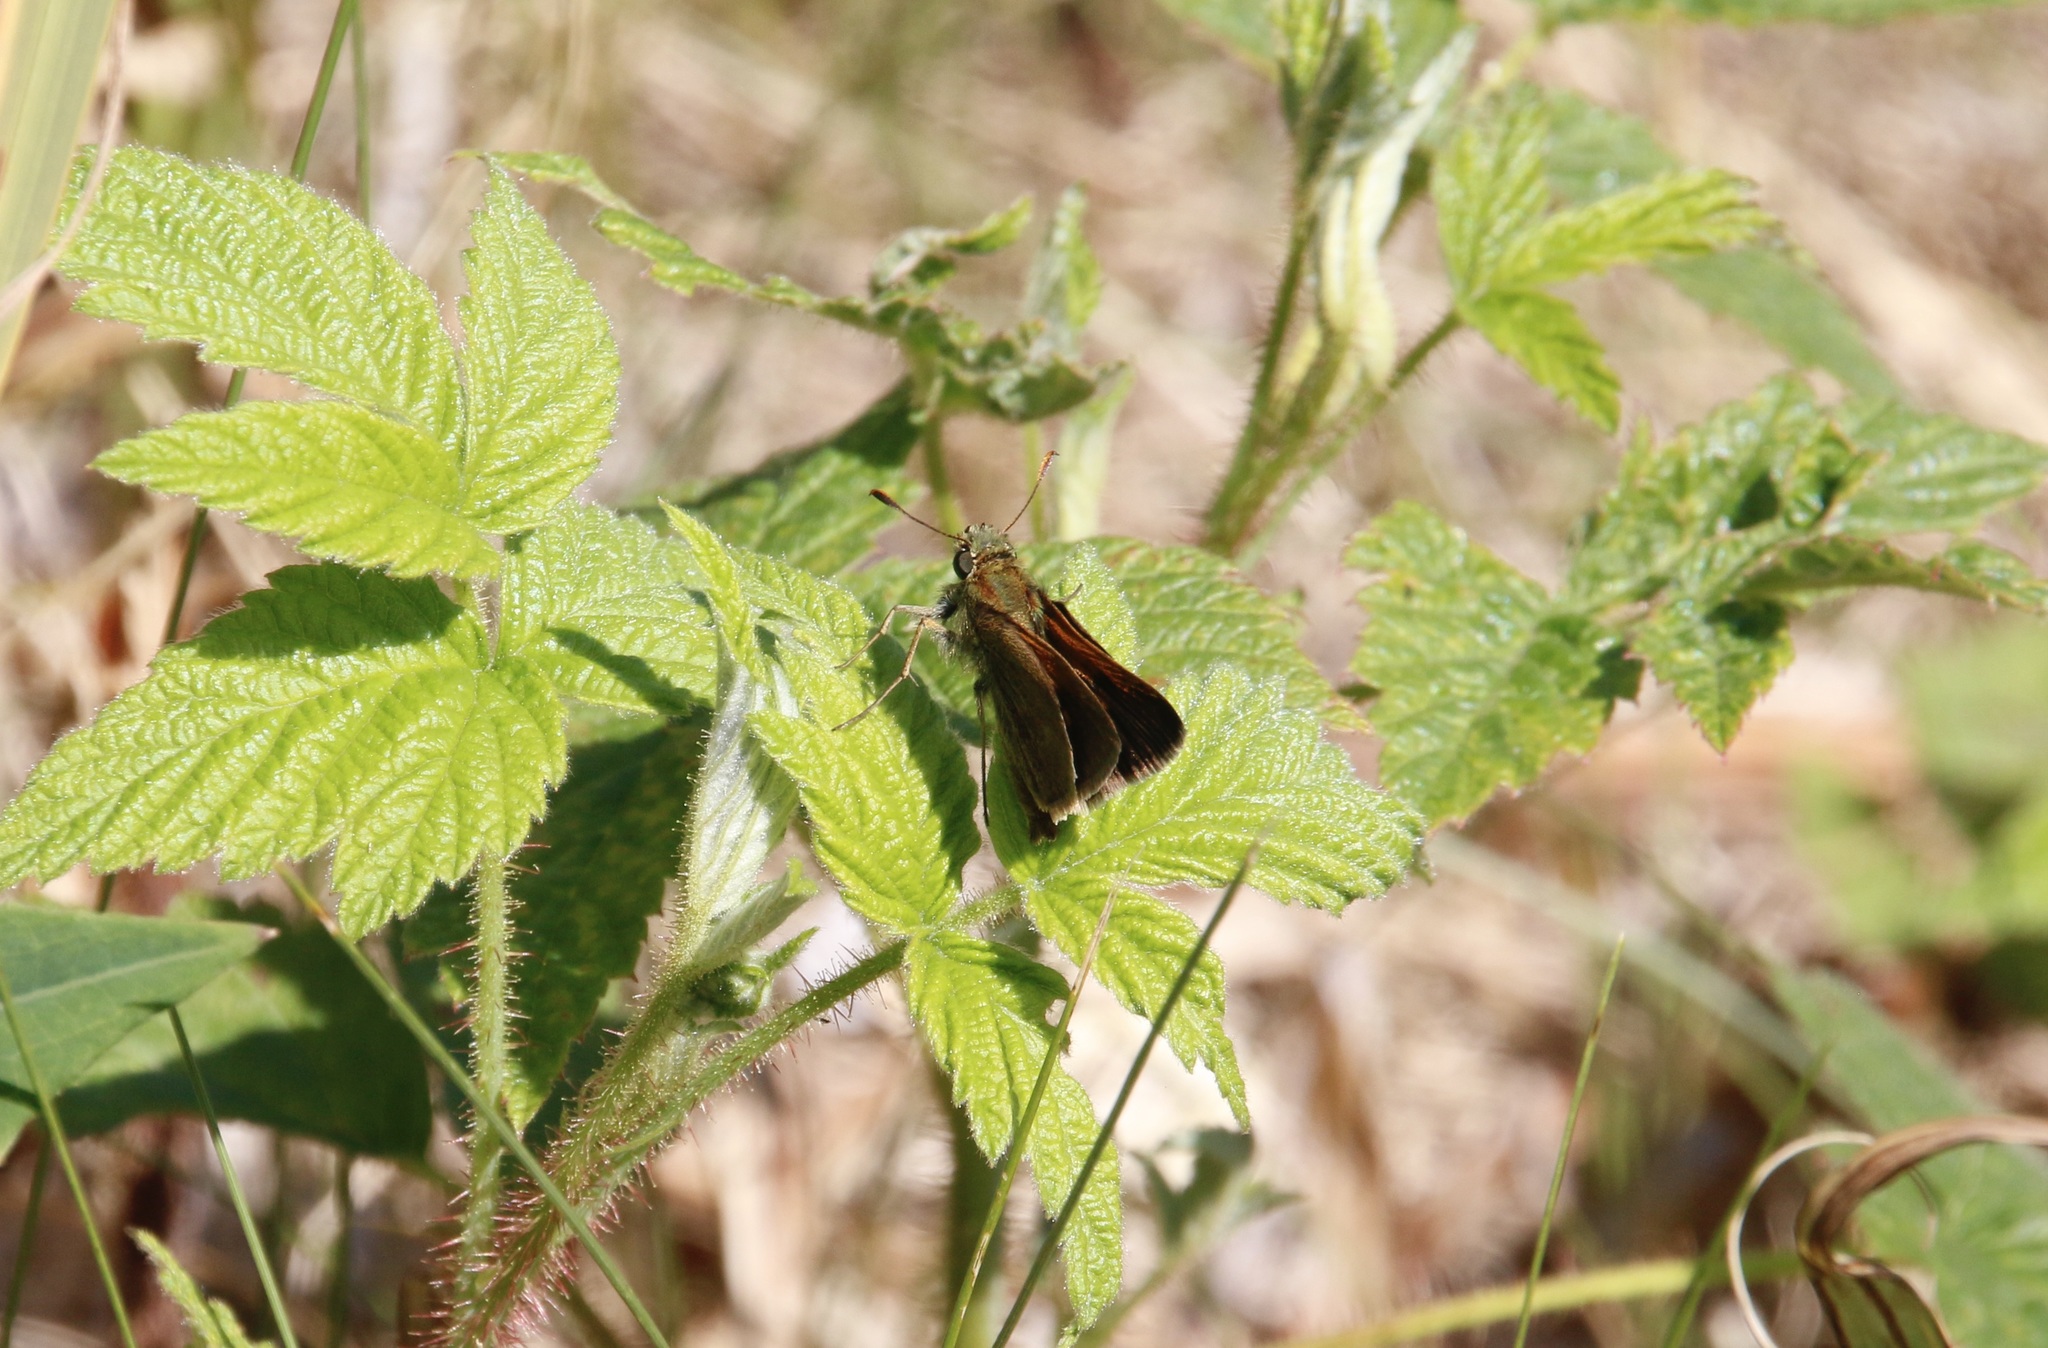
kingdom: Animalia
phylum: Arthropoda
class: Insecta
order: Lepidoptera
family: Hesperiidae
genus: Polites
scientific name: Polites themistocles
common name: Tawny-edged skipper
